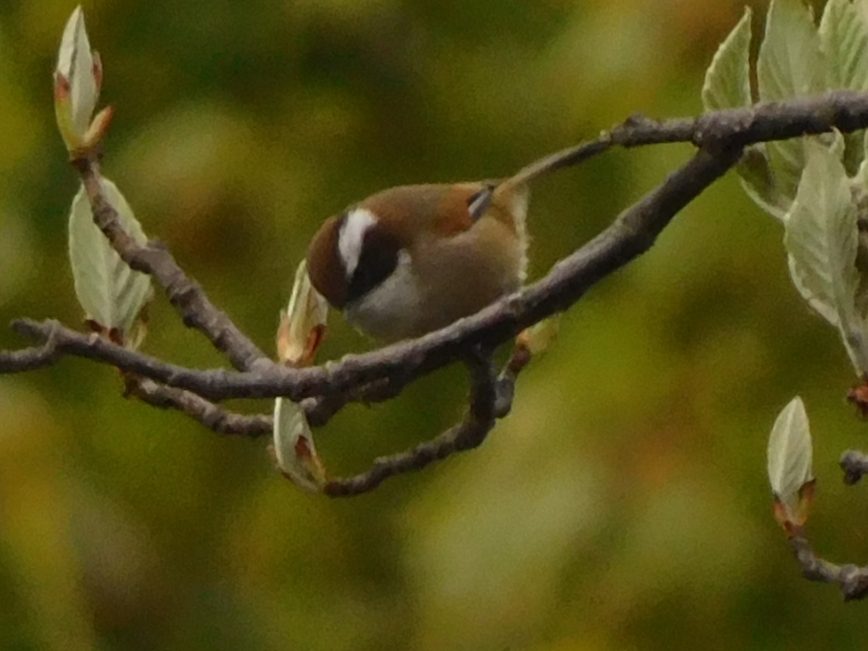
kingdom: Animalia
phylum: Chordata
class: Aves
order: Passeriformes
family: Aegithalidae
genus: Aegithalos
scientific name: Aegithalos concinnus
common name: Black-throated bushtit
